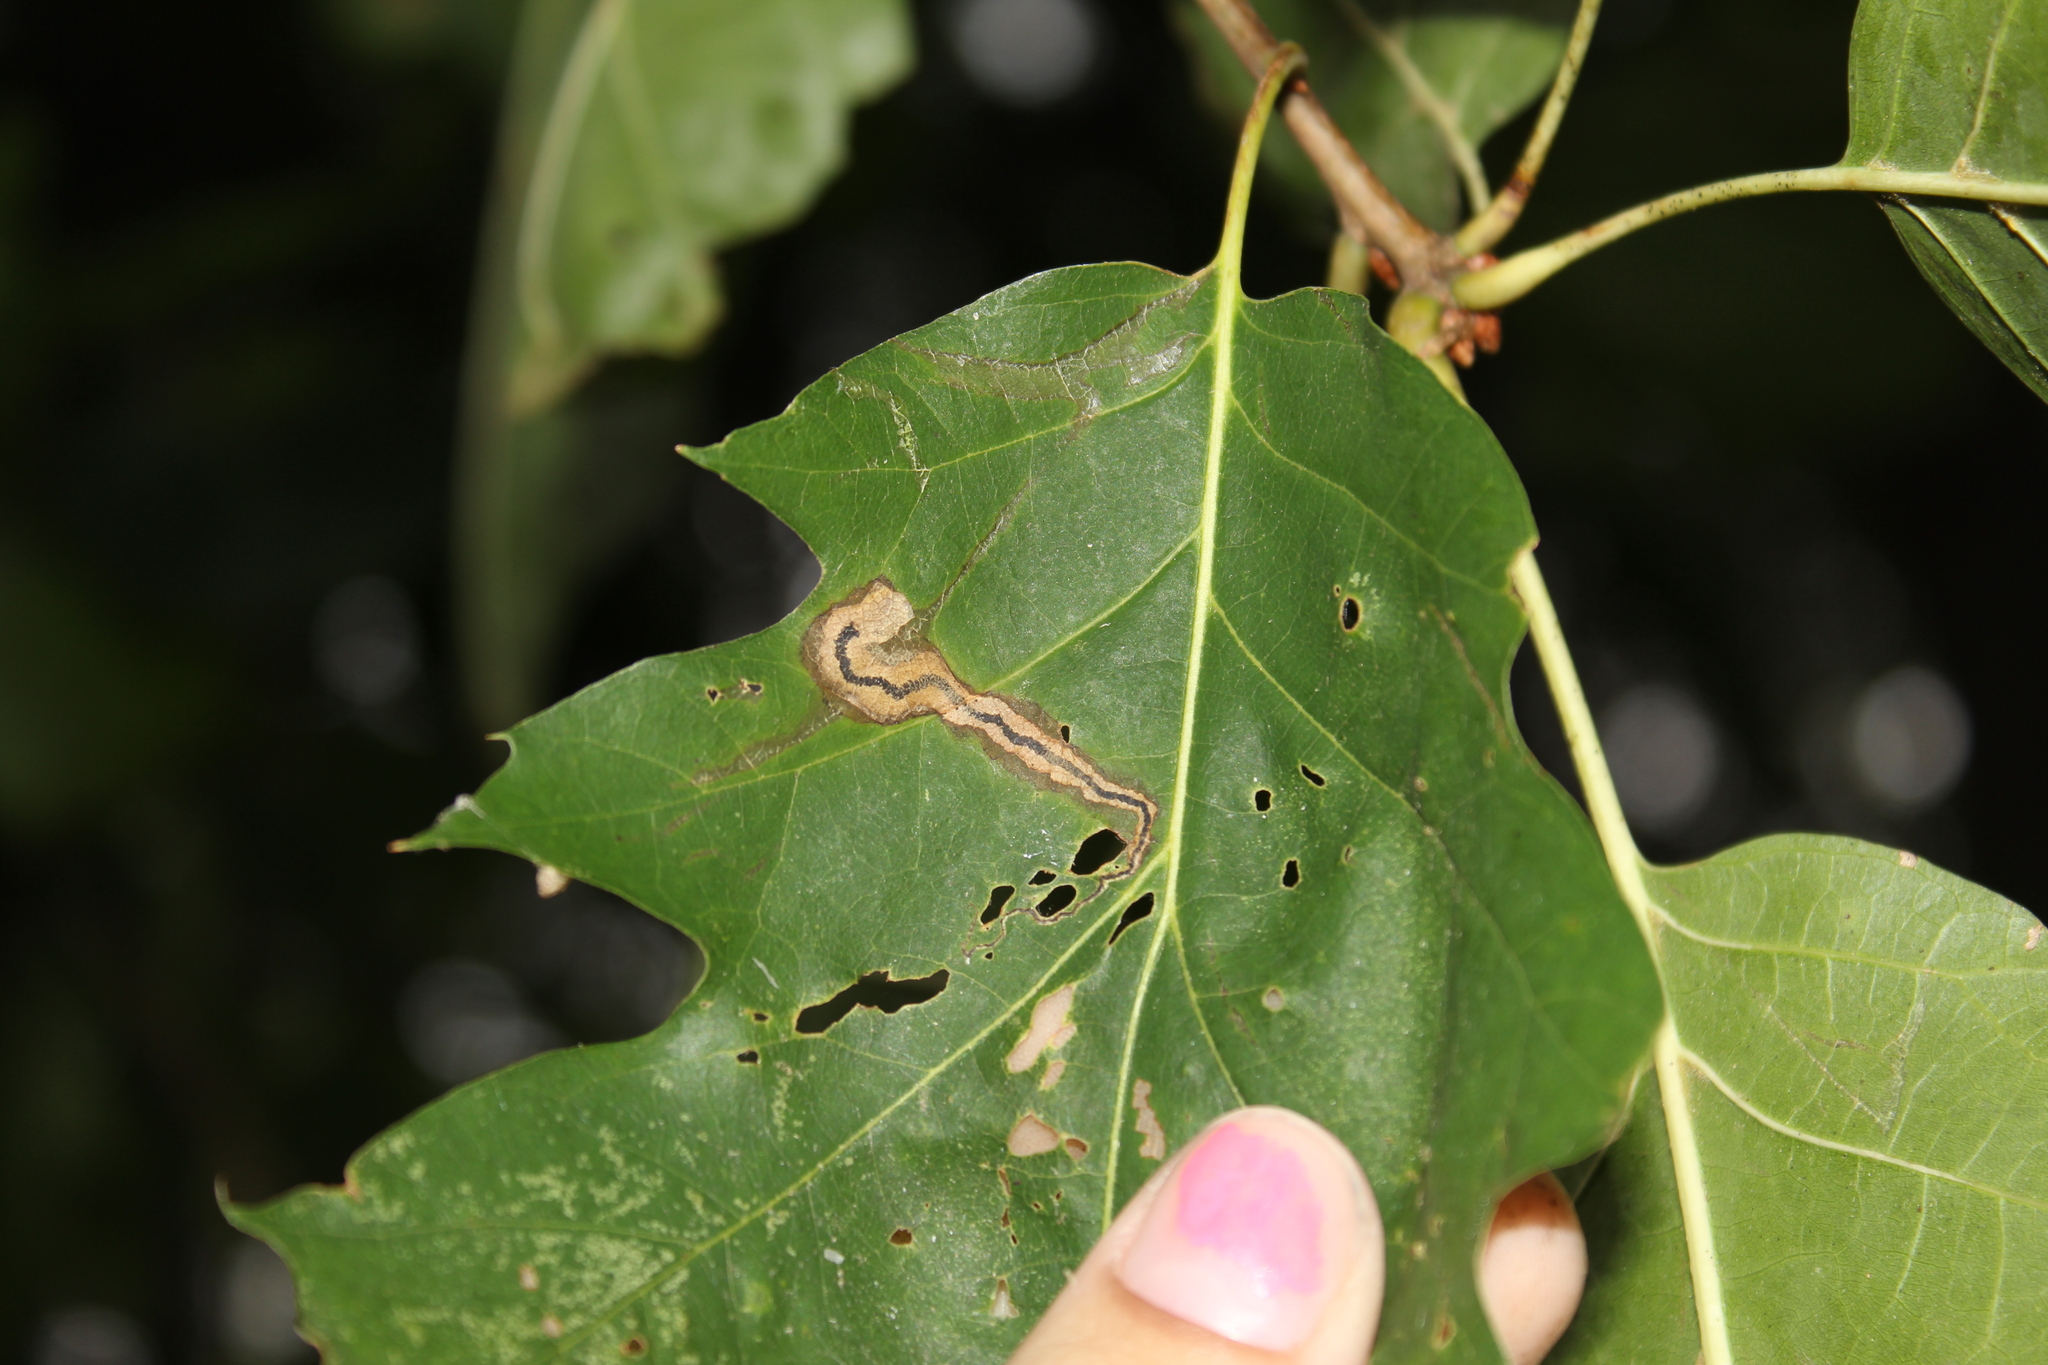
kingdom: Animalia
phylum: Arthropoda
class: Insecta
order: Lepidoptera
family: Nepticulidae
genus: Stigmella
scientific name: Stigmella quercipulchella
